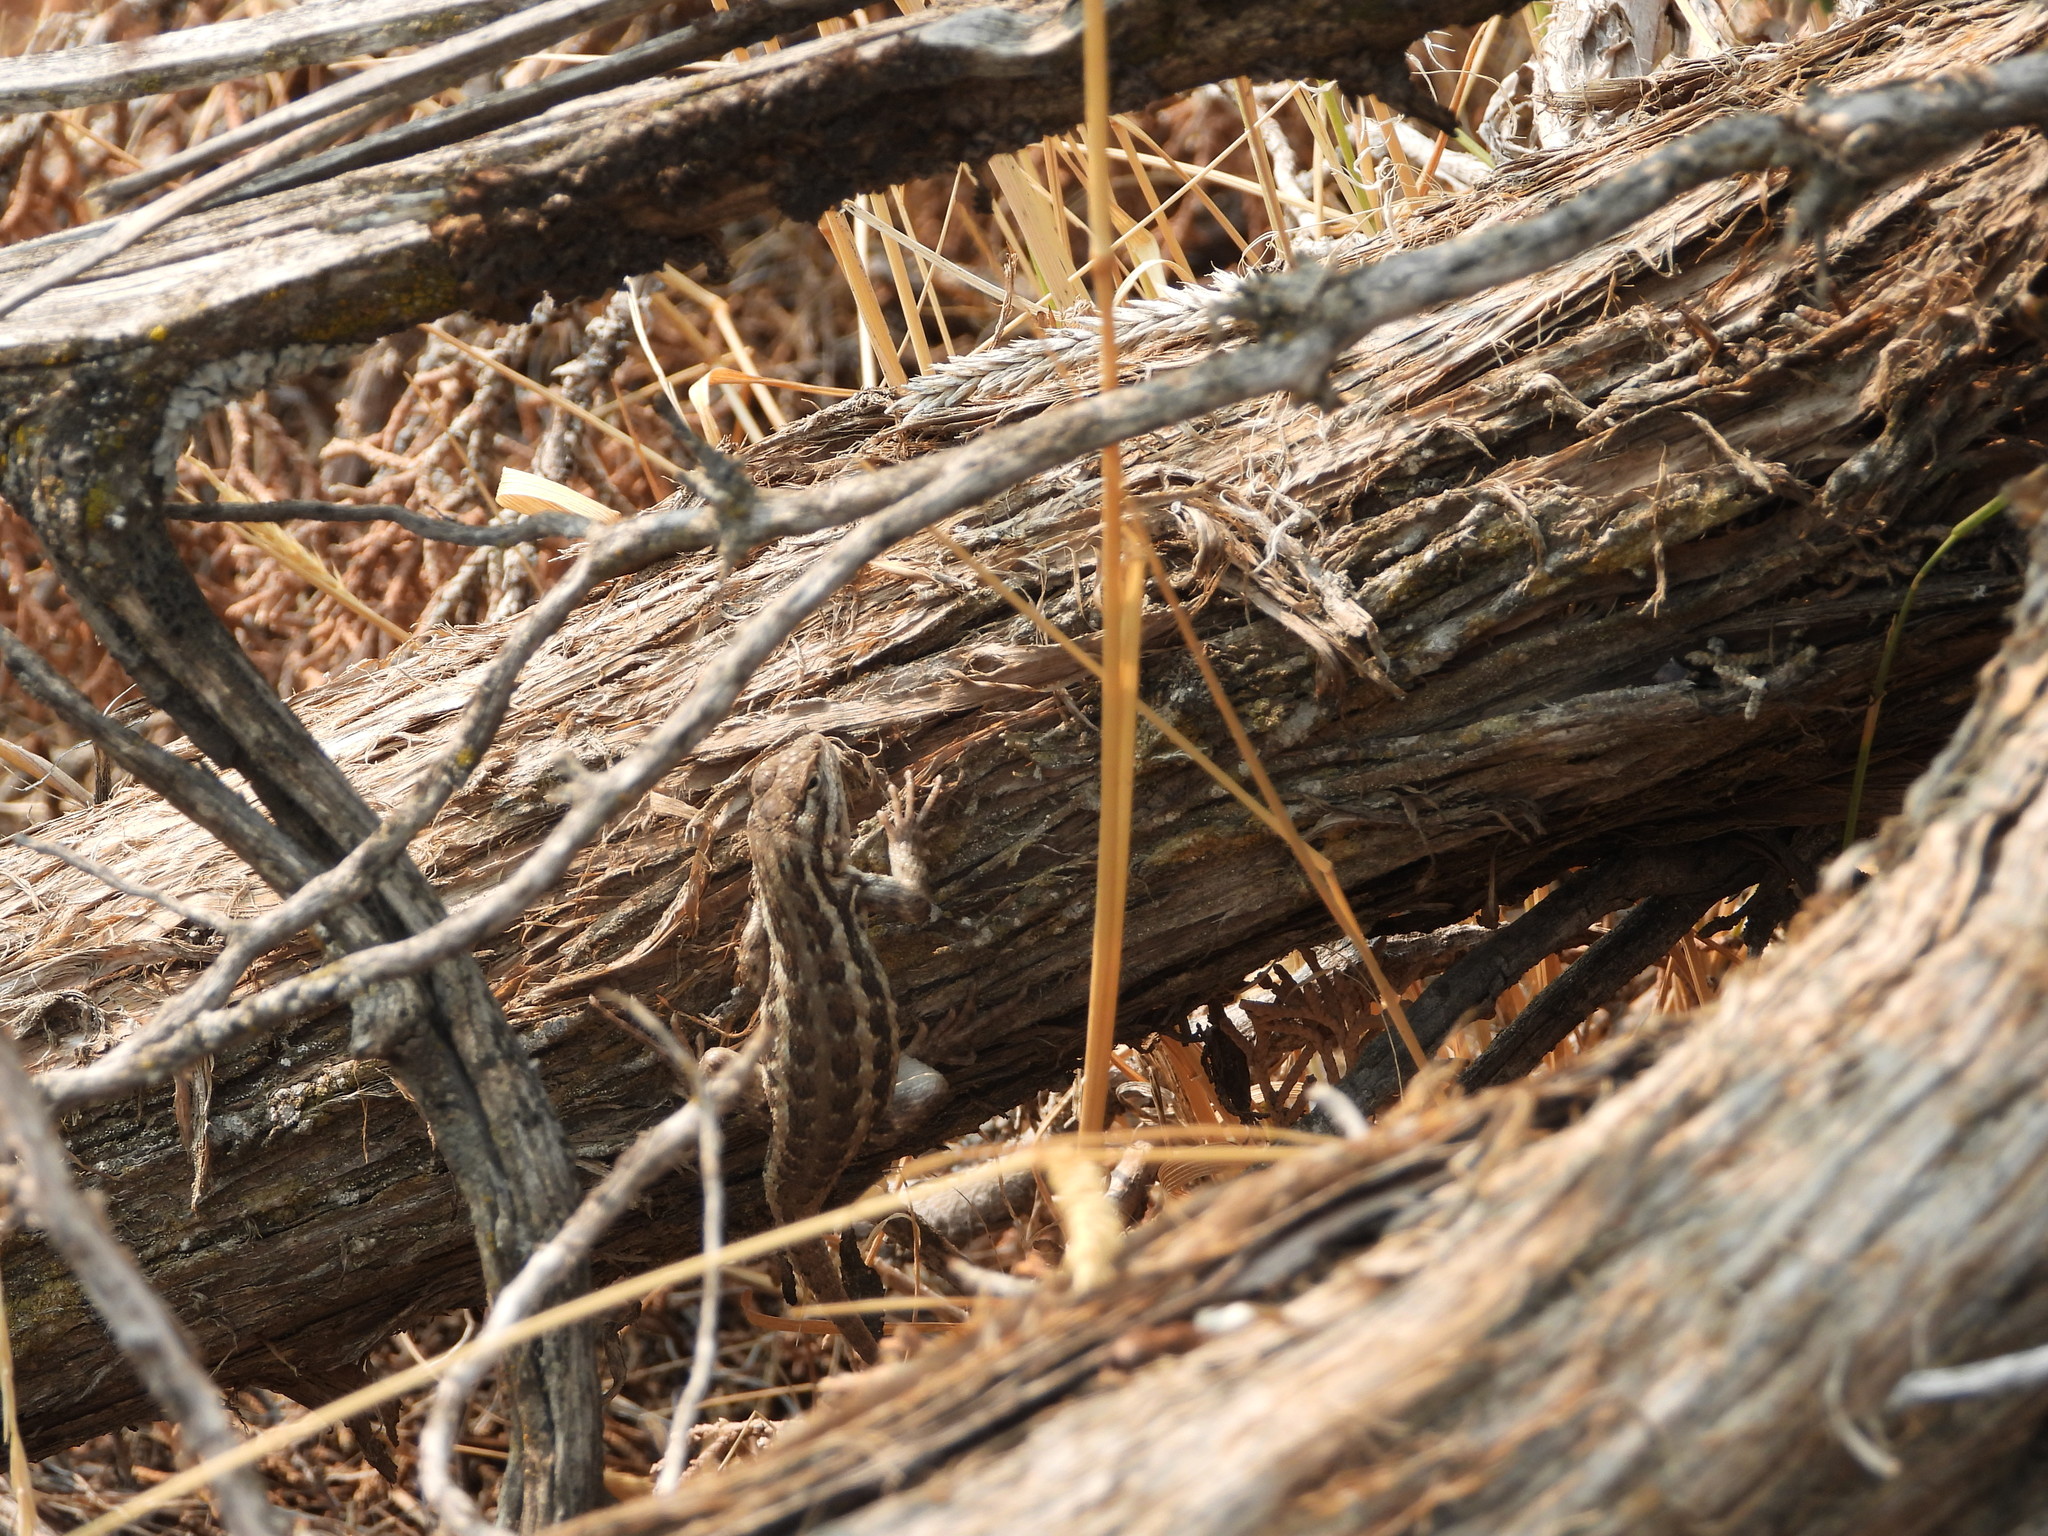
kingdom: Animalia
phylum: Chordata
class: Squamata
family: Phrynosomatidae
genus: Sceloporus
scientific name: Sceloporus graciosus
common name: Sagebrush lizard
